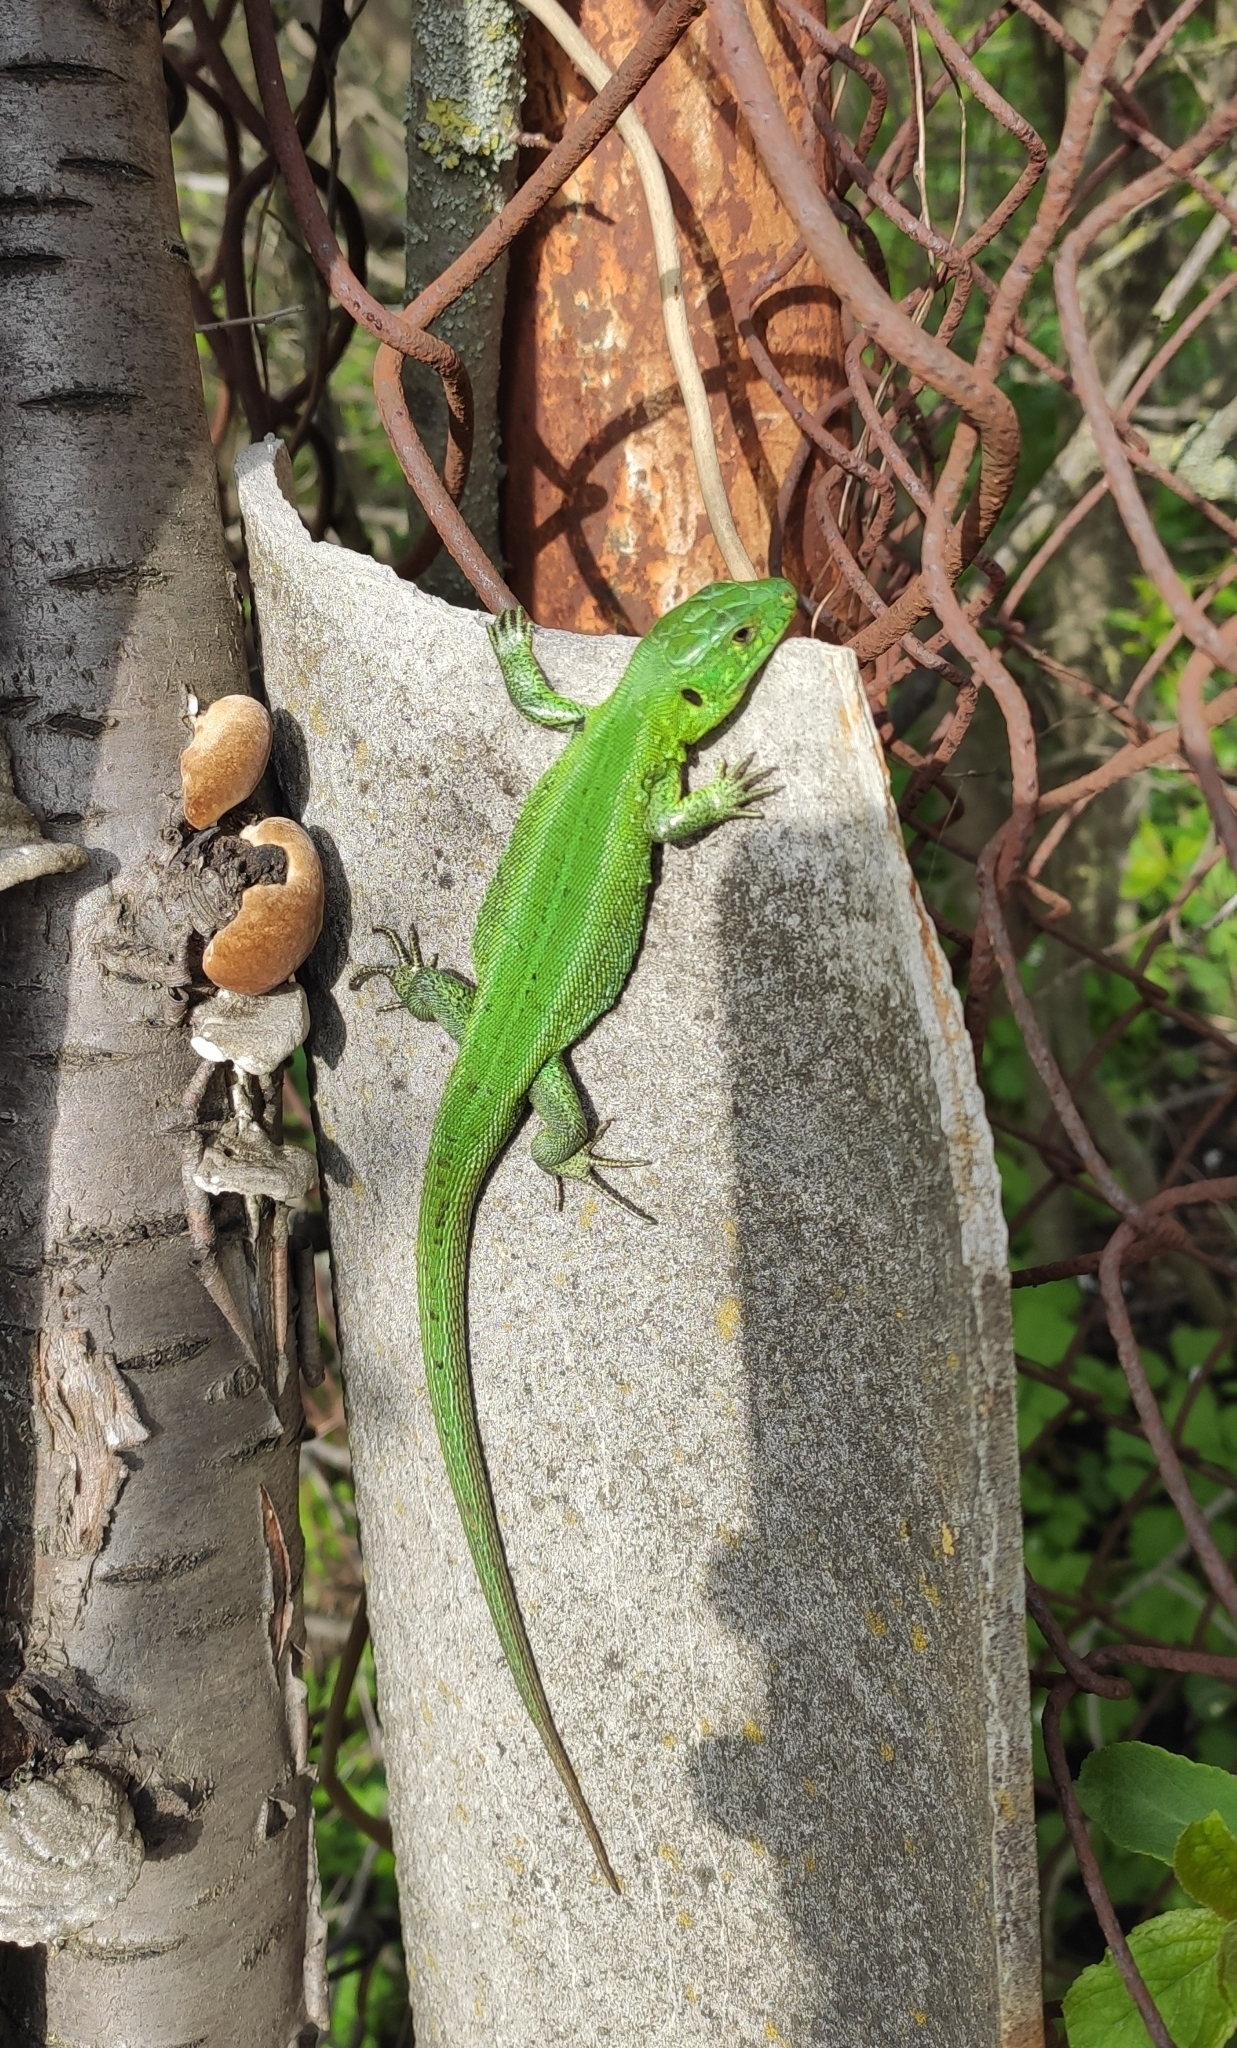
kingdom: Animalia
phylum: Chordata
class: Squamata
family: Lacertidae
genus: Lacerta
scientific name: Lacerta agilis
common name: Sand lizard
